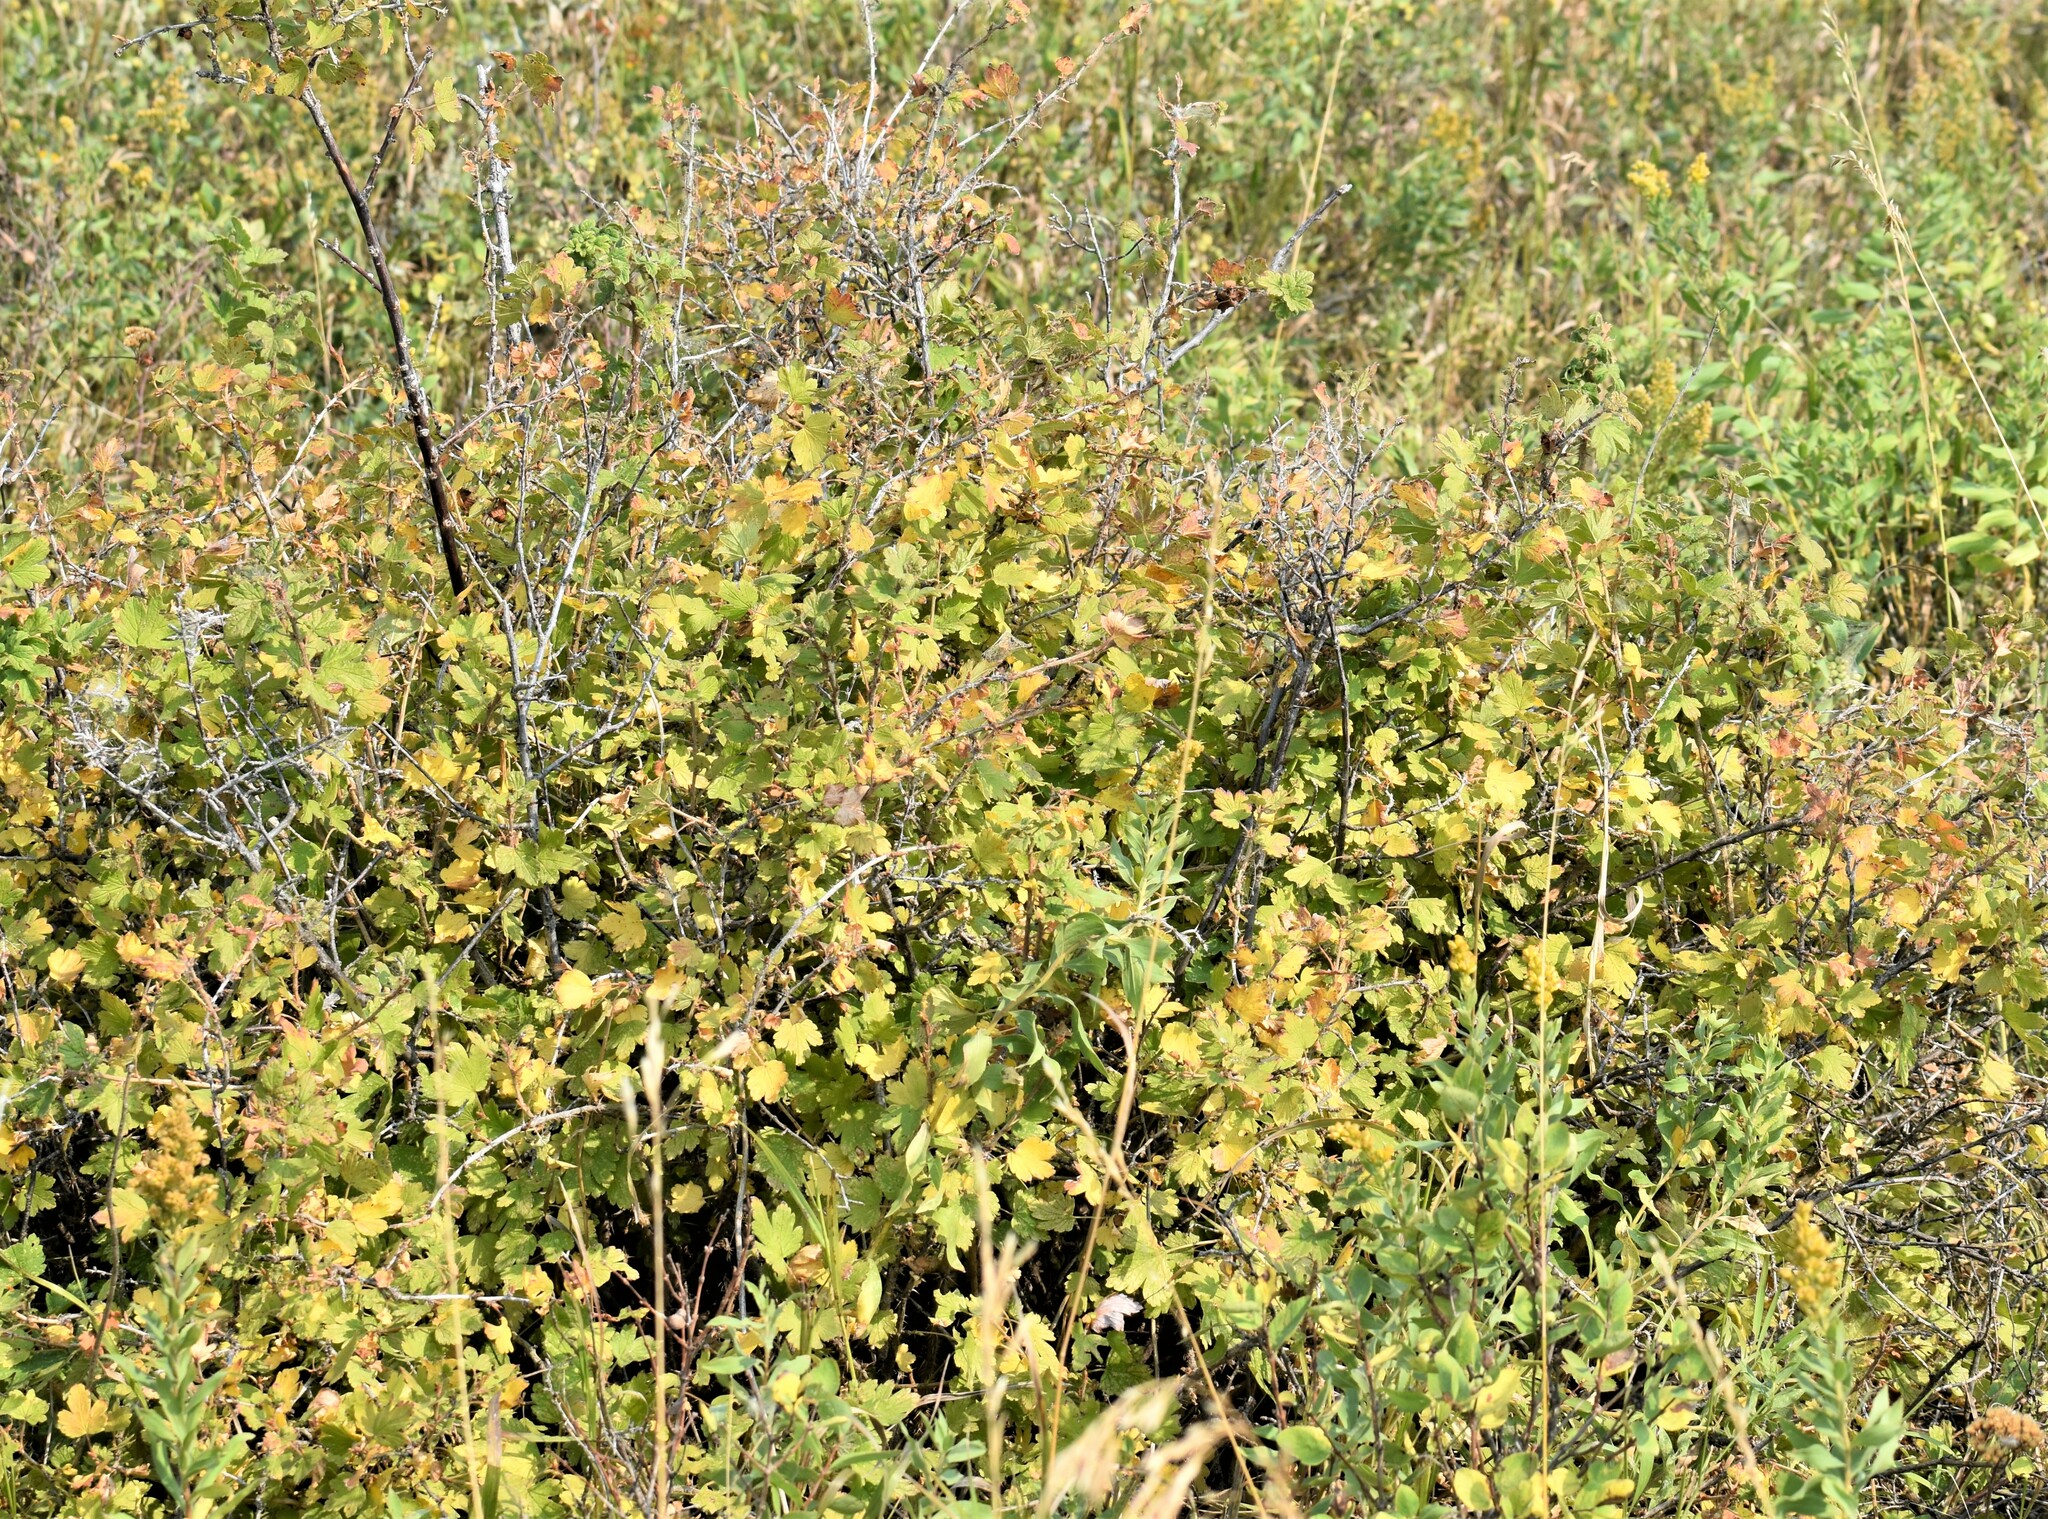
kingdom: Plantae
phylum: Tracheophyta
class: Magnoliopsida
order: Saxifragales
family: Grossulariaceae
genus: Ribes
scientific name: Ribes oxyacanthoides
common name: Northern gooseberry
